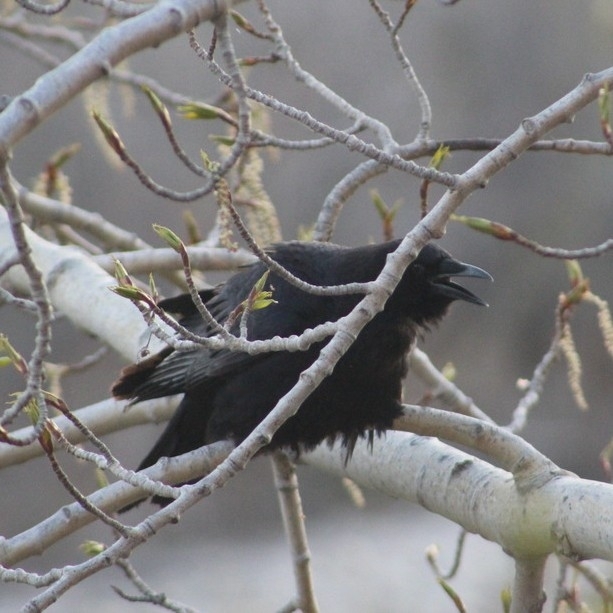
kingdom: Animalia
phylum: Chordata
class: Aves
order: Passeriformes
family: Corvidae
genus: Corvus
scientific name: Corvus corax
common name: Common raven
